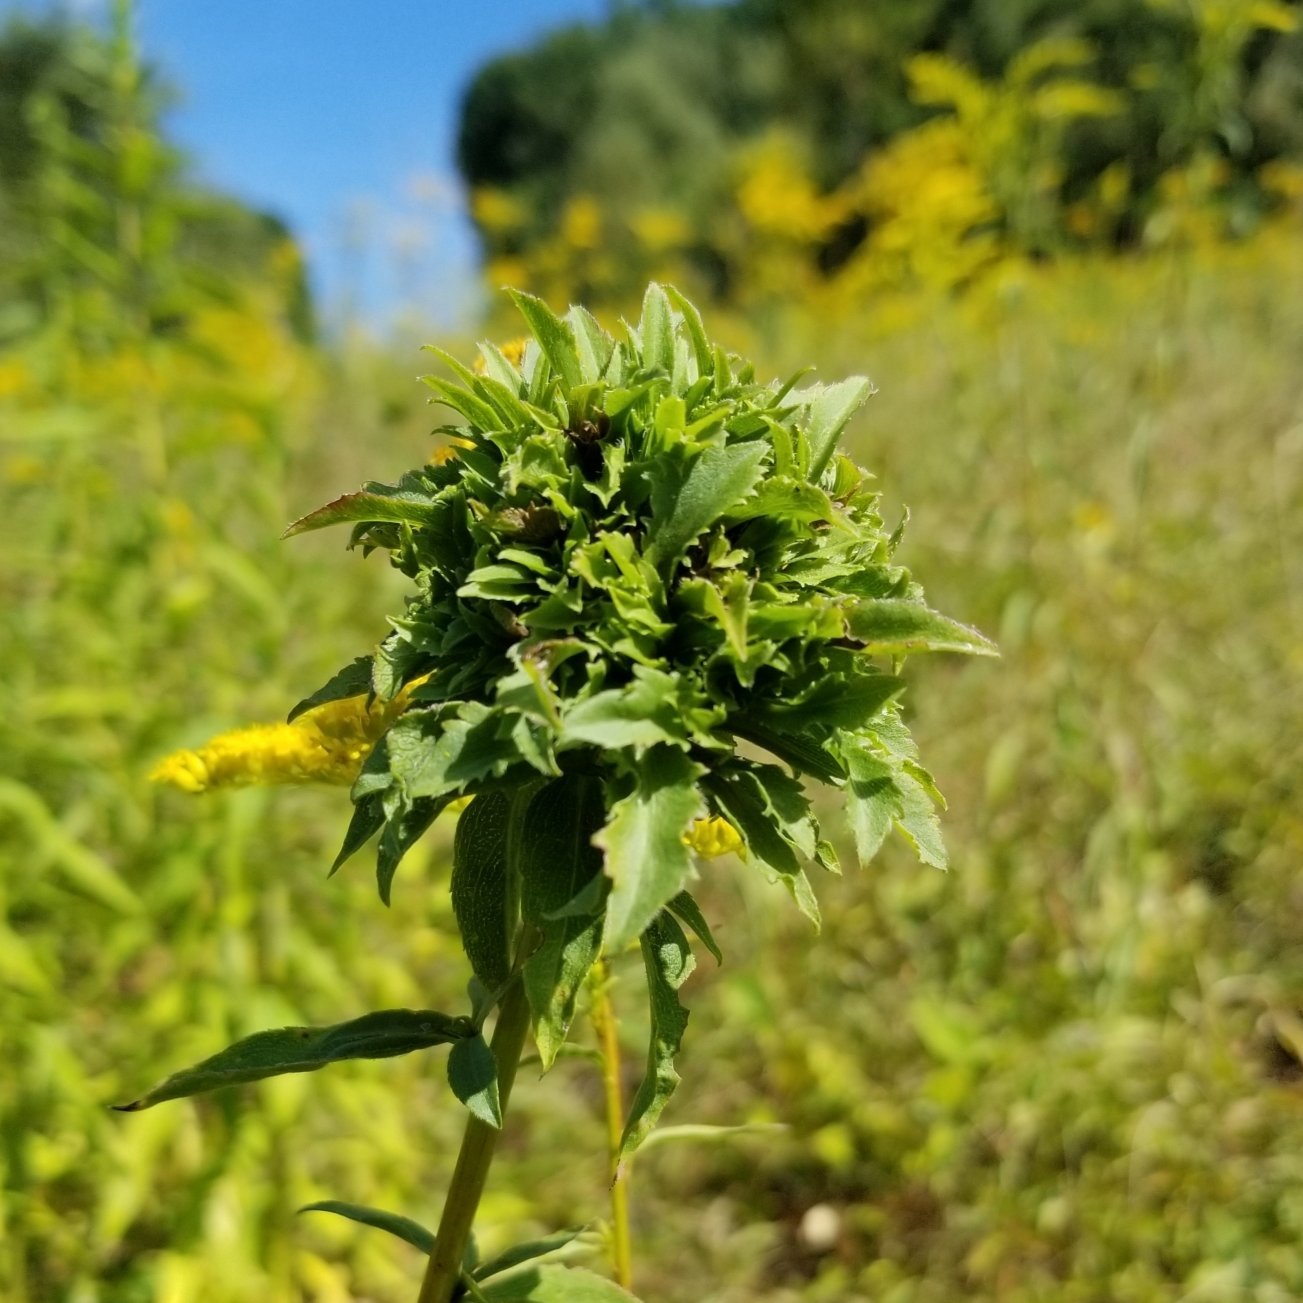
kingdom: Animalia
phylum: Arthropoda
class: Insecta
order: Diptera
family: Cecidomyiidae
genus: Asphondylia
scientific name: Asphondylia monacha
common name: Nun midge
